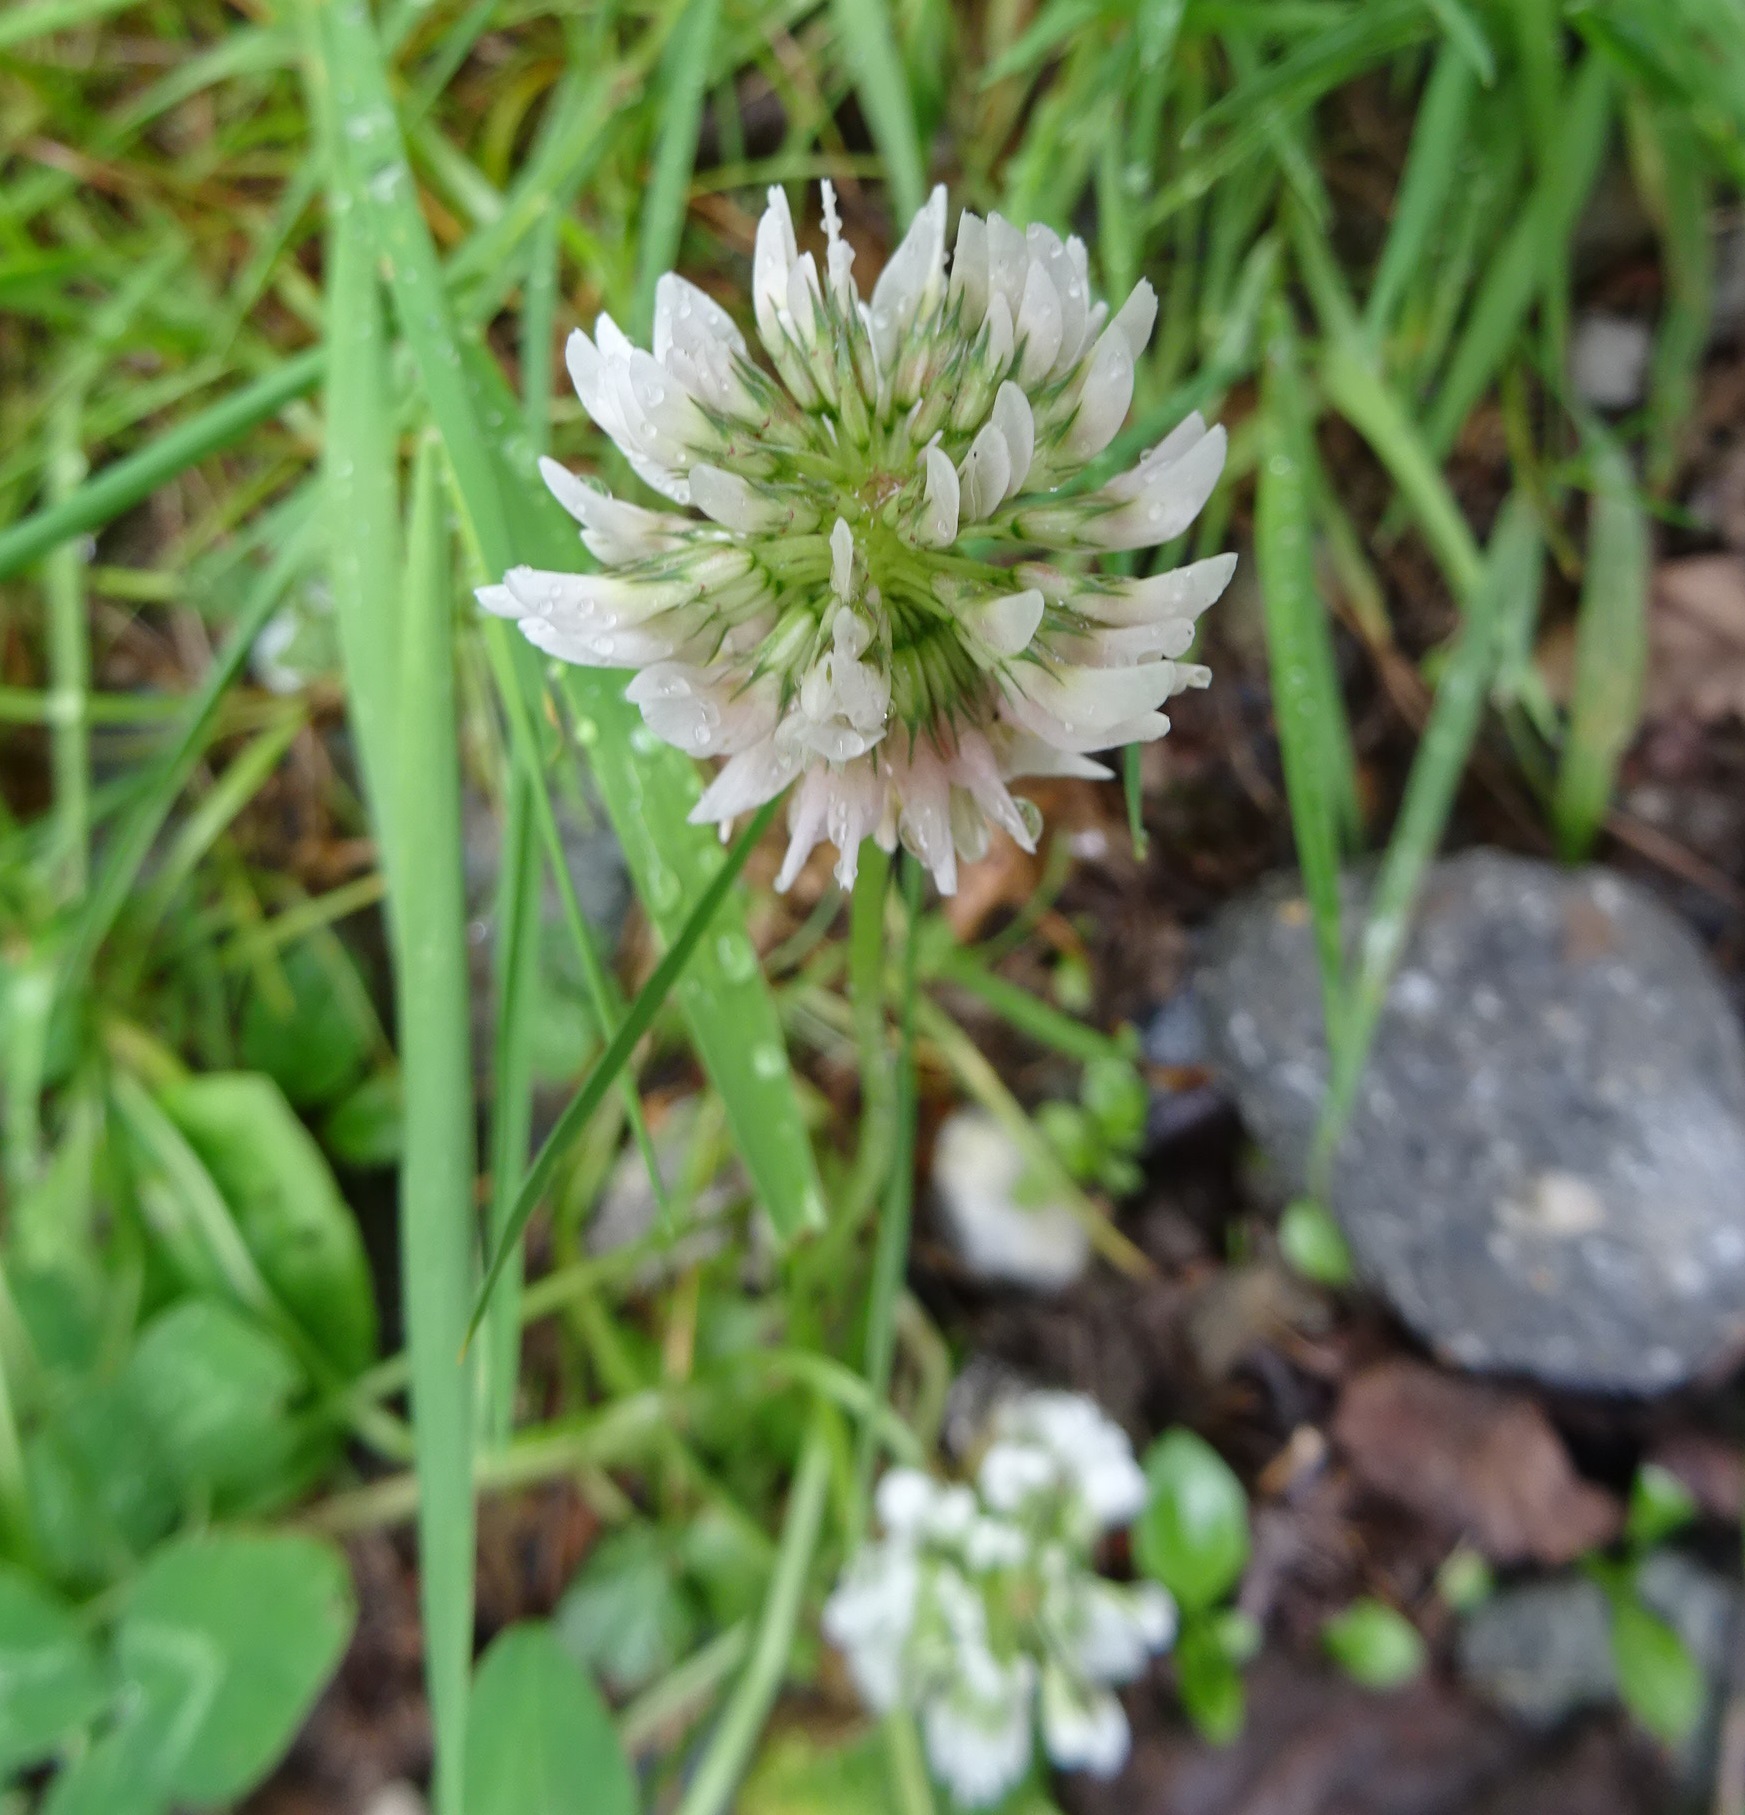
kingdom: Plantae
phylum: Tracheophyta
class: Magnoliopsida
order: Fabales
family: Fabaceae
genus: Trifolium
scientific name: Trifolium repens
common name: White clover
